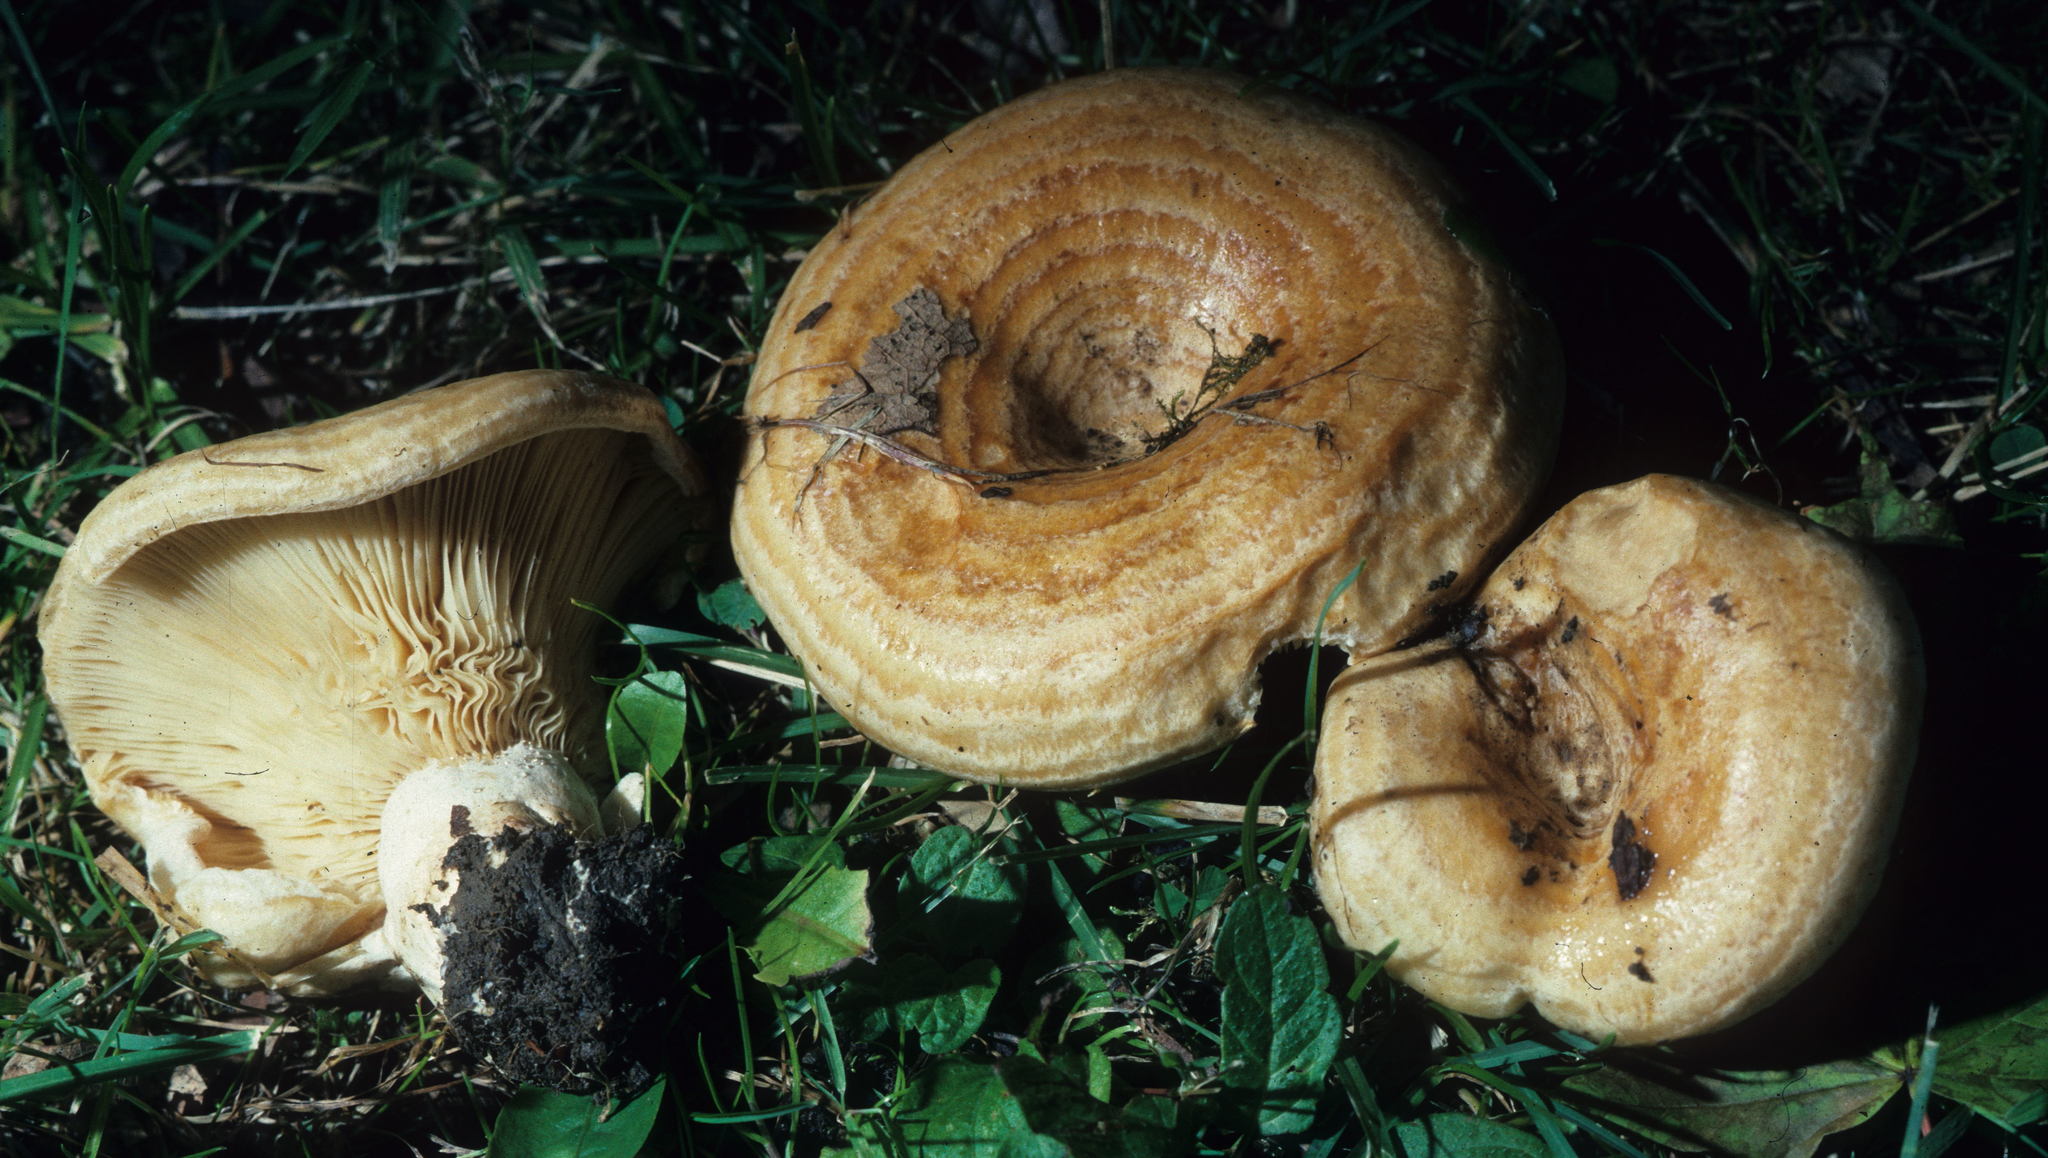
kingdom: Fungi
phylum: Basidiomycota
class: Agaricomycetes
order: Russulales
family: Russulaceae
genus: Lactarius
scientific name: Lactarius psammicola
